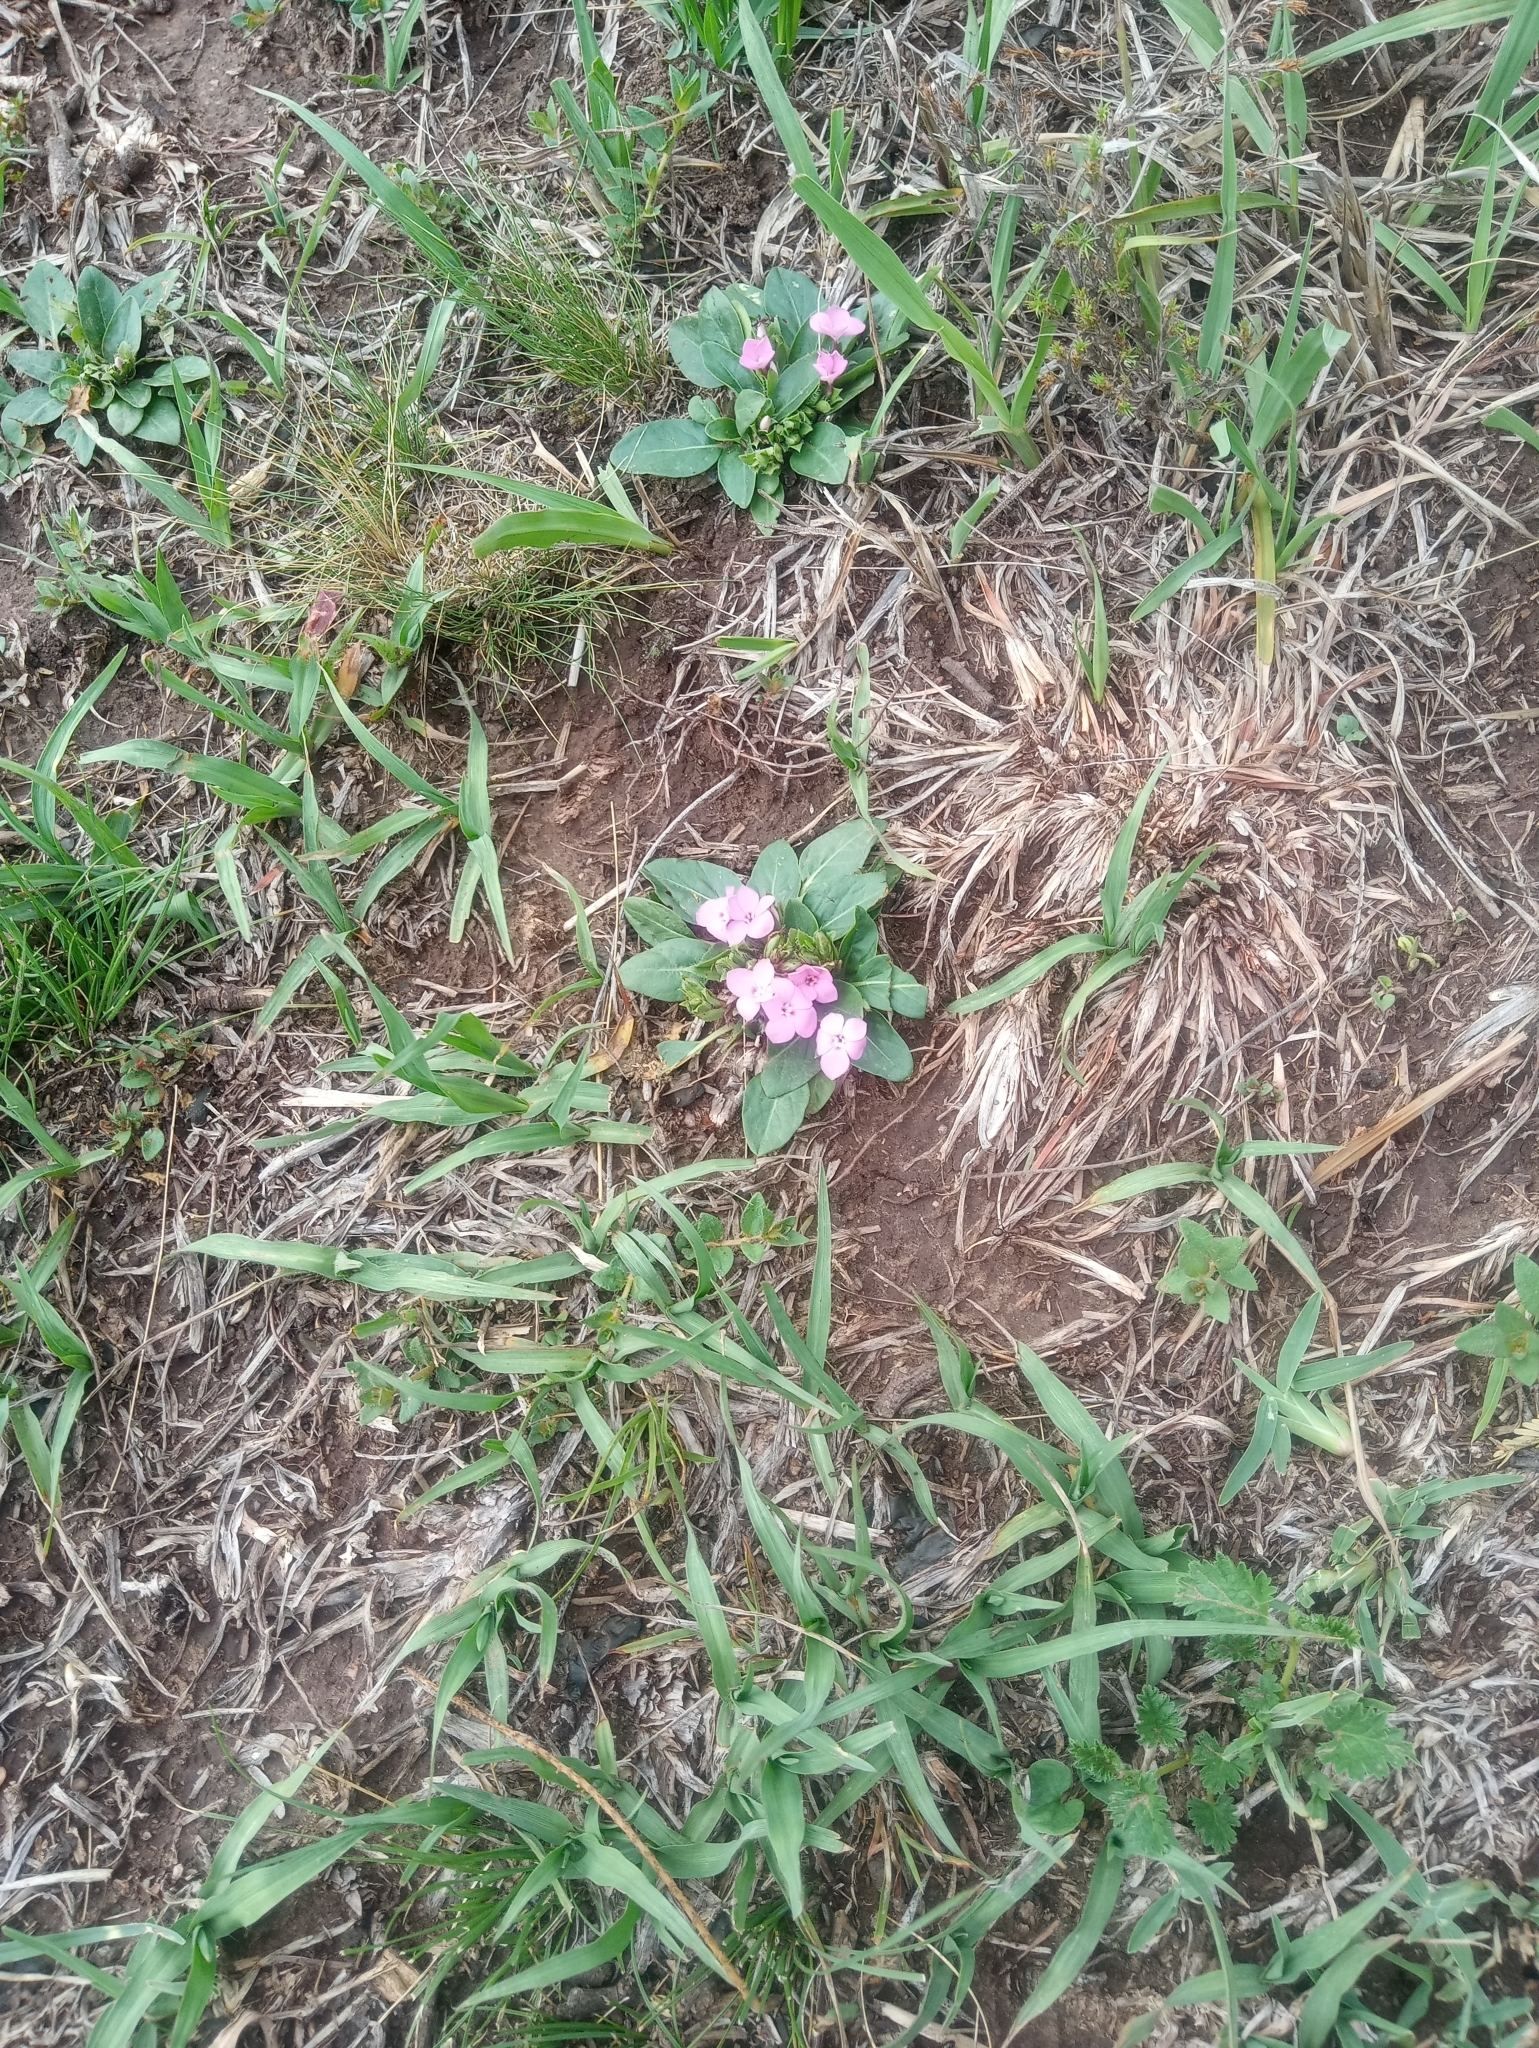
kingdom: Plantae
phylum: Tracheophyta
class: Magnoliopsida
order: Lamiales
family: Acanthaceae
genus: Stenandrium
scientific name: Stenandrium dulce
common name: Pinklet
